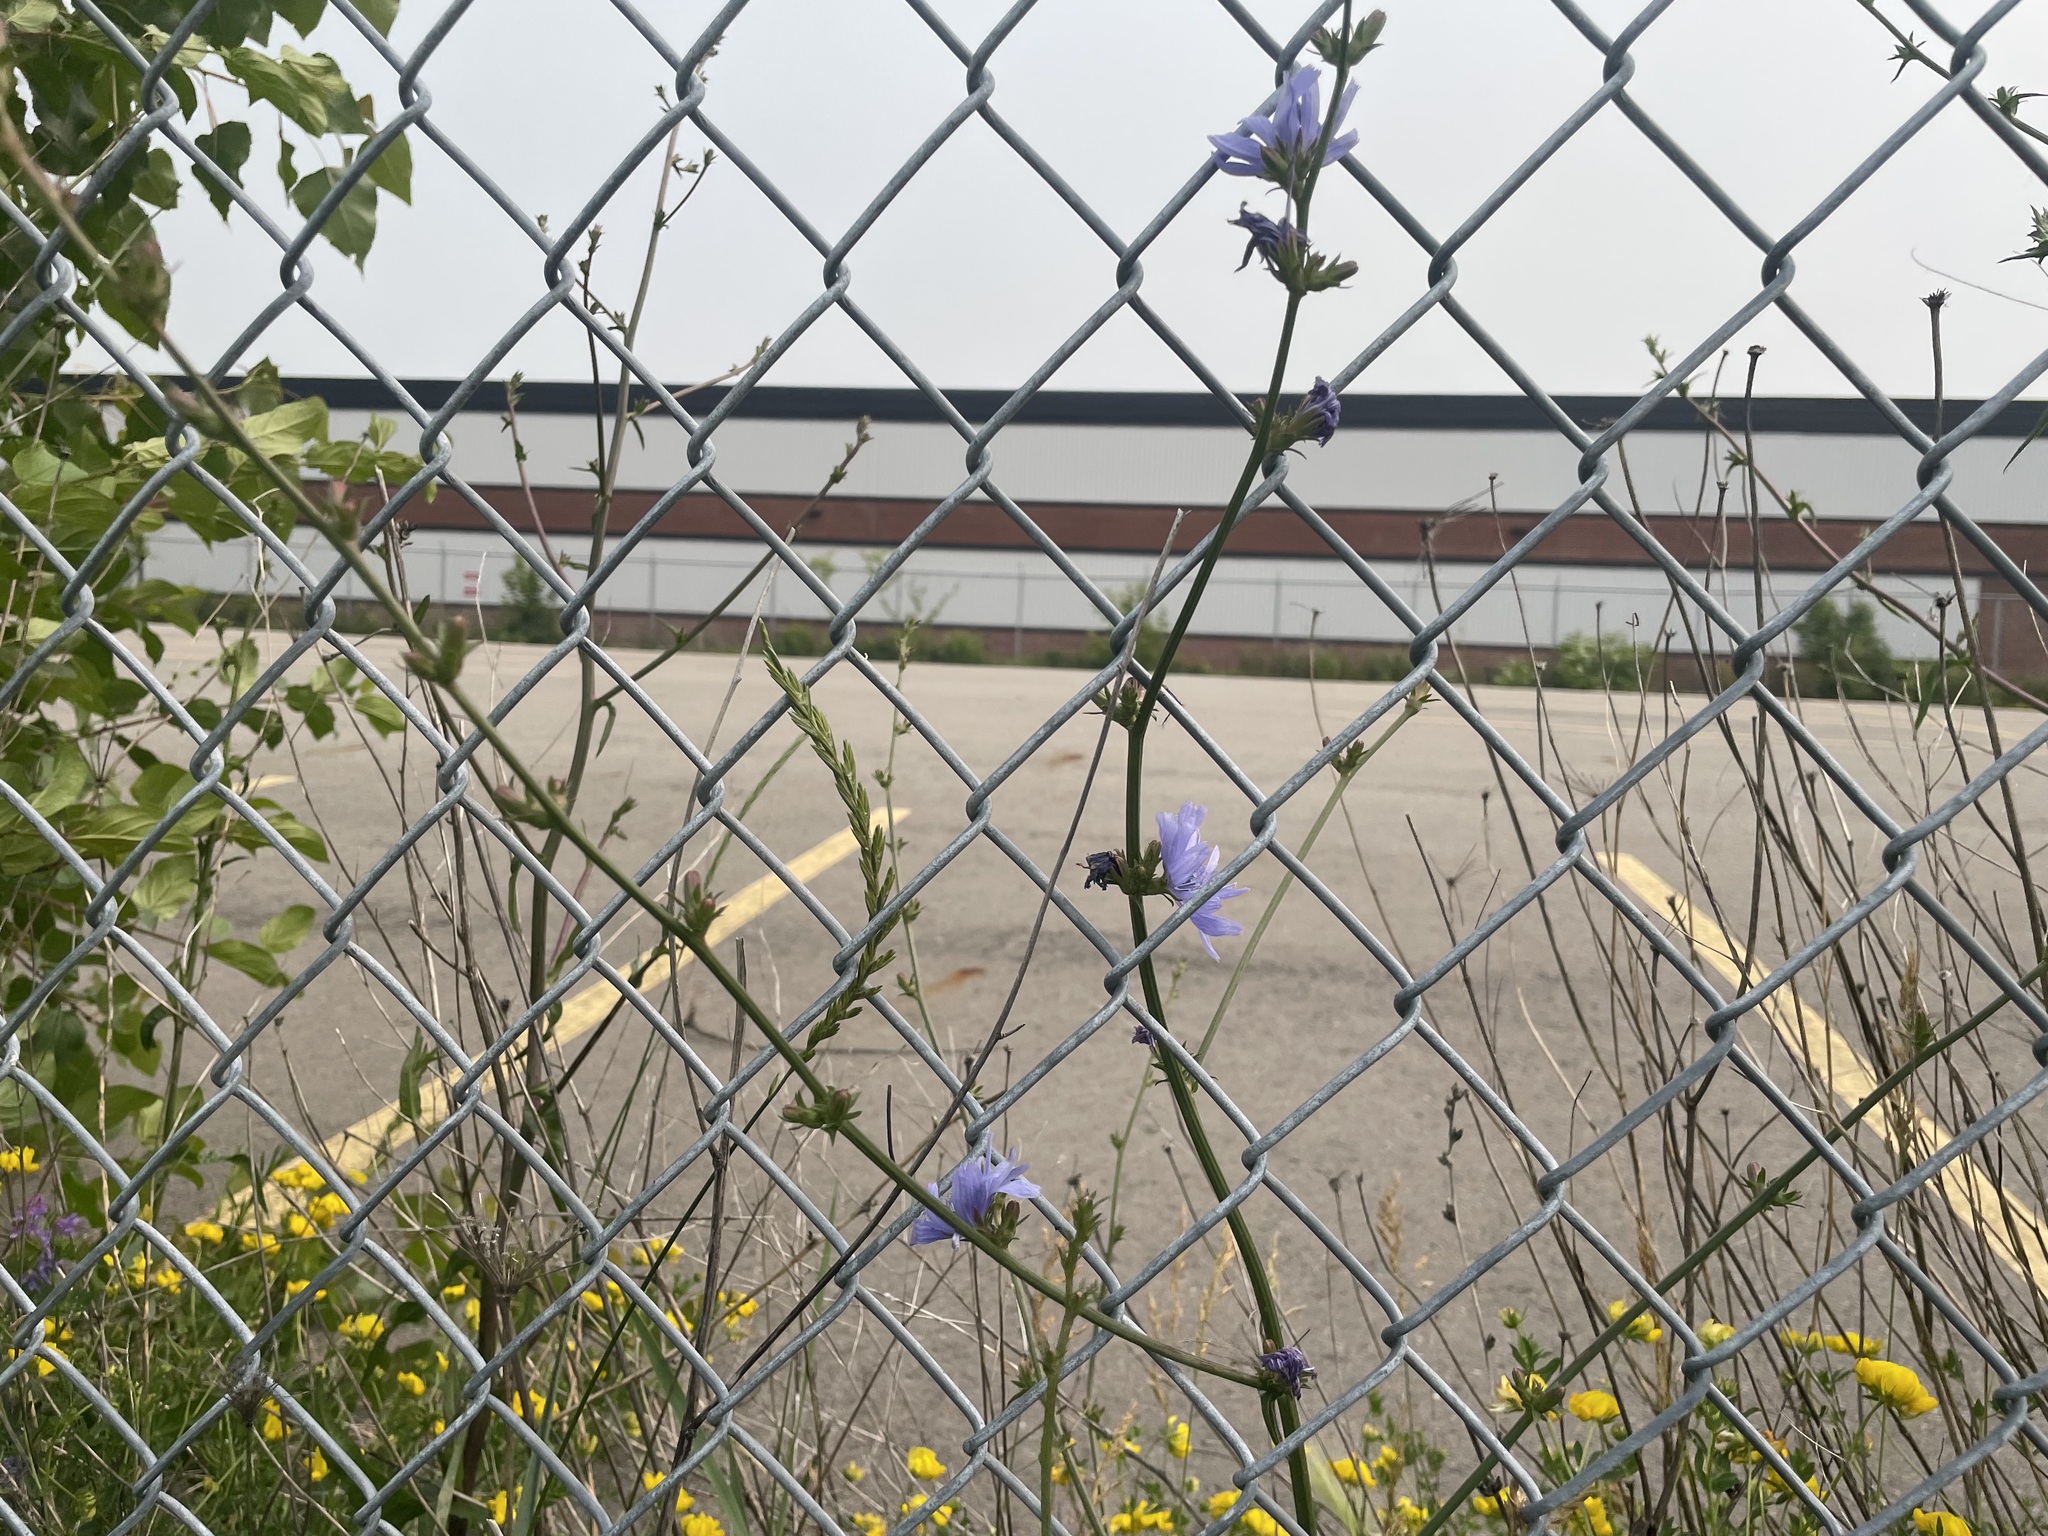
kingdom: Plantae
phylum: Tracheophyta
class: Magnoliopsida
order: Asterales
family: Asteraceae
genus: Cichorium
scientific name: Cichorium intybus
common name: Chicory
